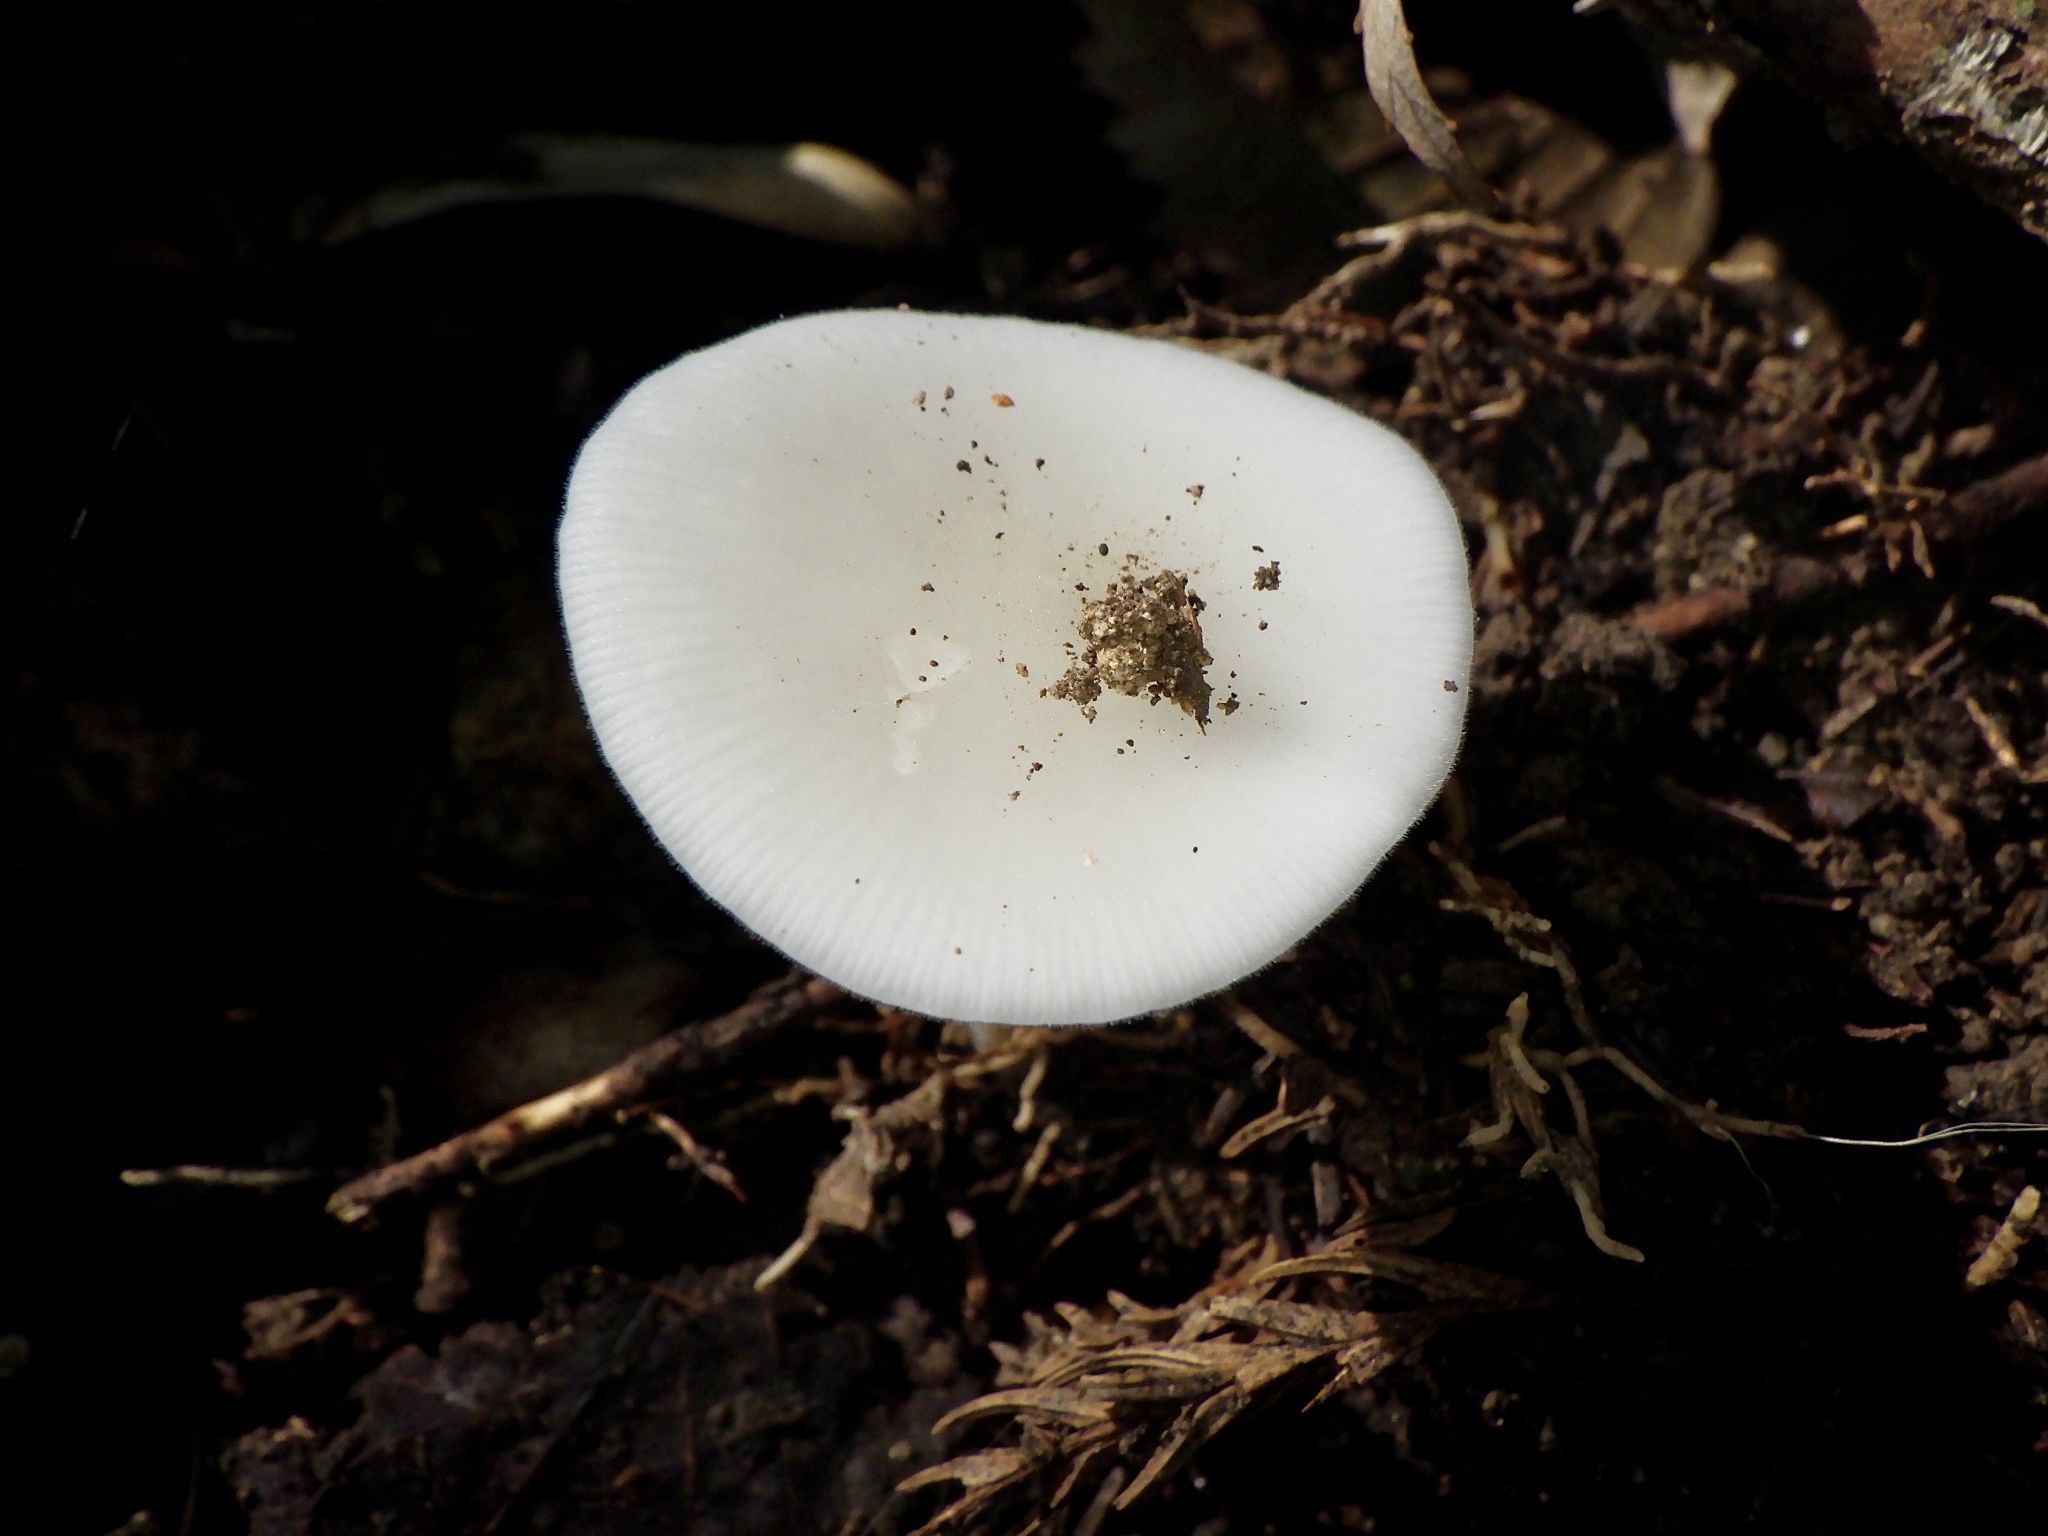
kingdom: Fungi
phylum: Basidiomycota
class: Agaricomycetes
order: Agaricales
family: Physalacriaceae
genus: Strobilurus
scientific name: Strobilurus ohshimae
